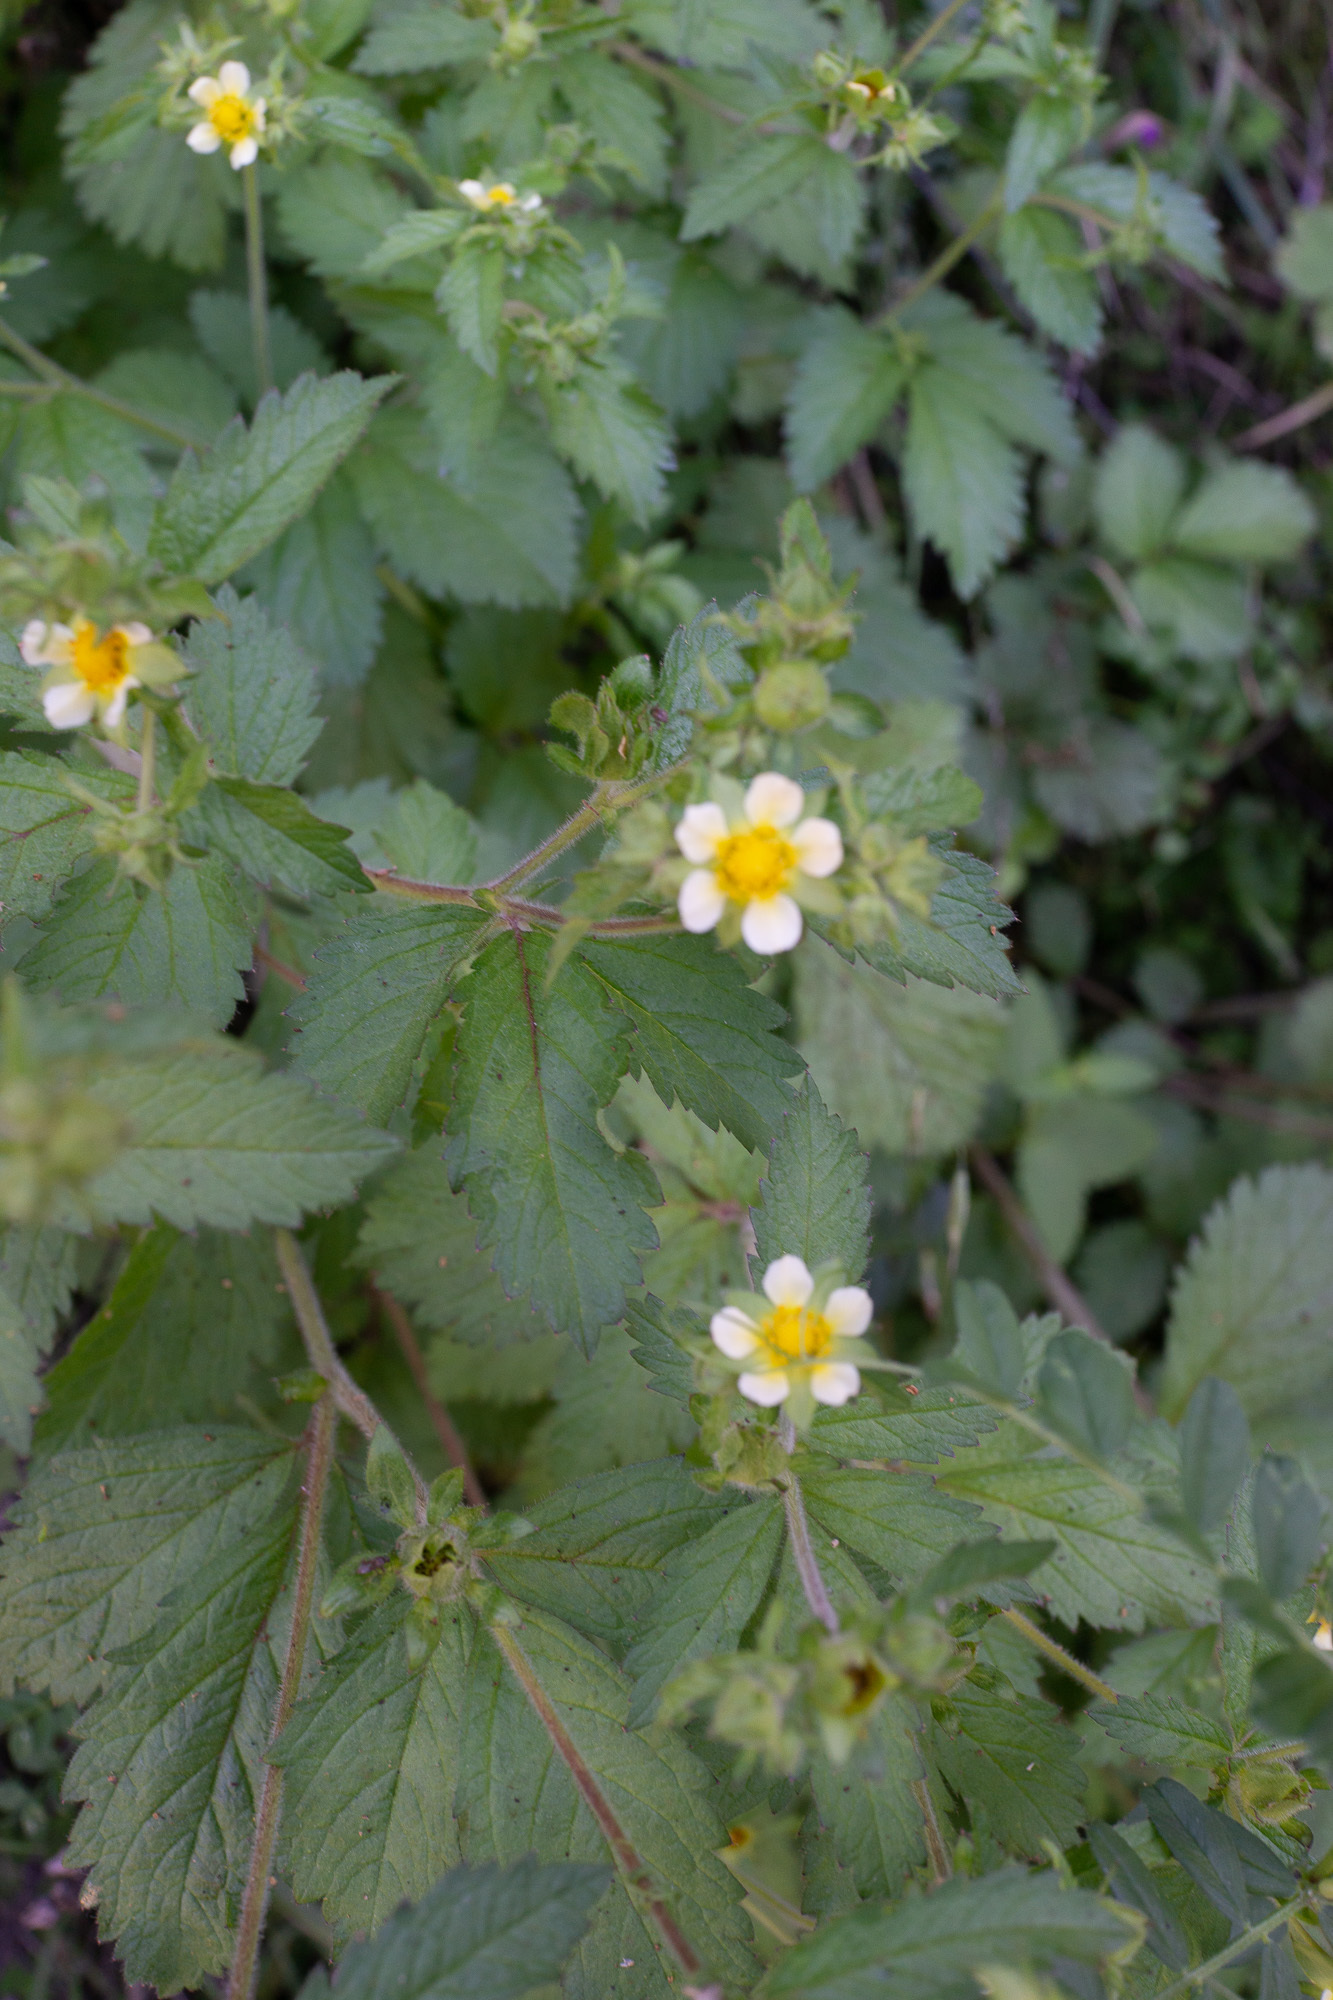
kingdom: Plantae
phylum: Tracheophyta
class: Magnoliopsida
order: Rosales
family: Rosaceae
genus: Drymocallis
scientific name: Drymocallis glandulosa
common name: Sticky cinquefoil
